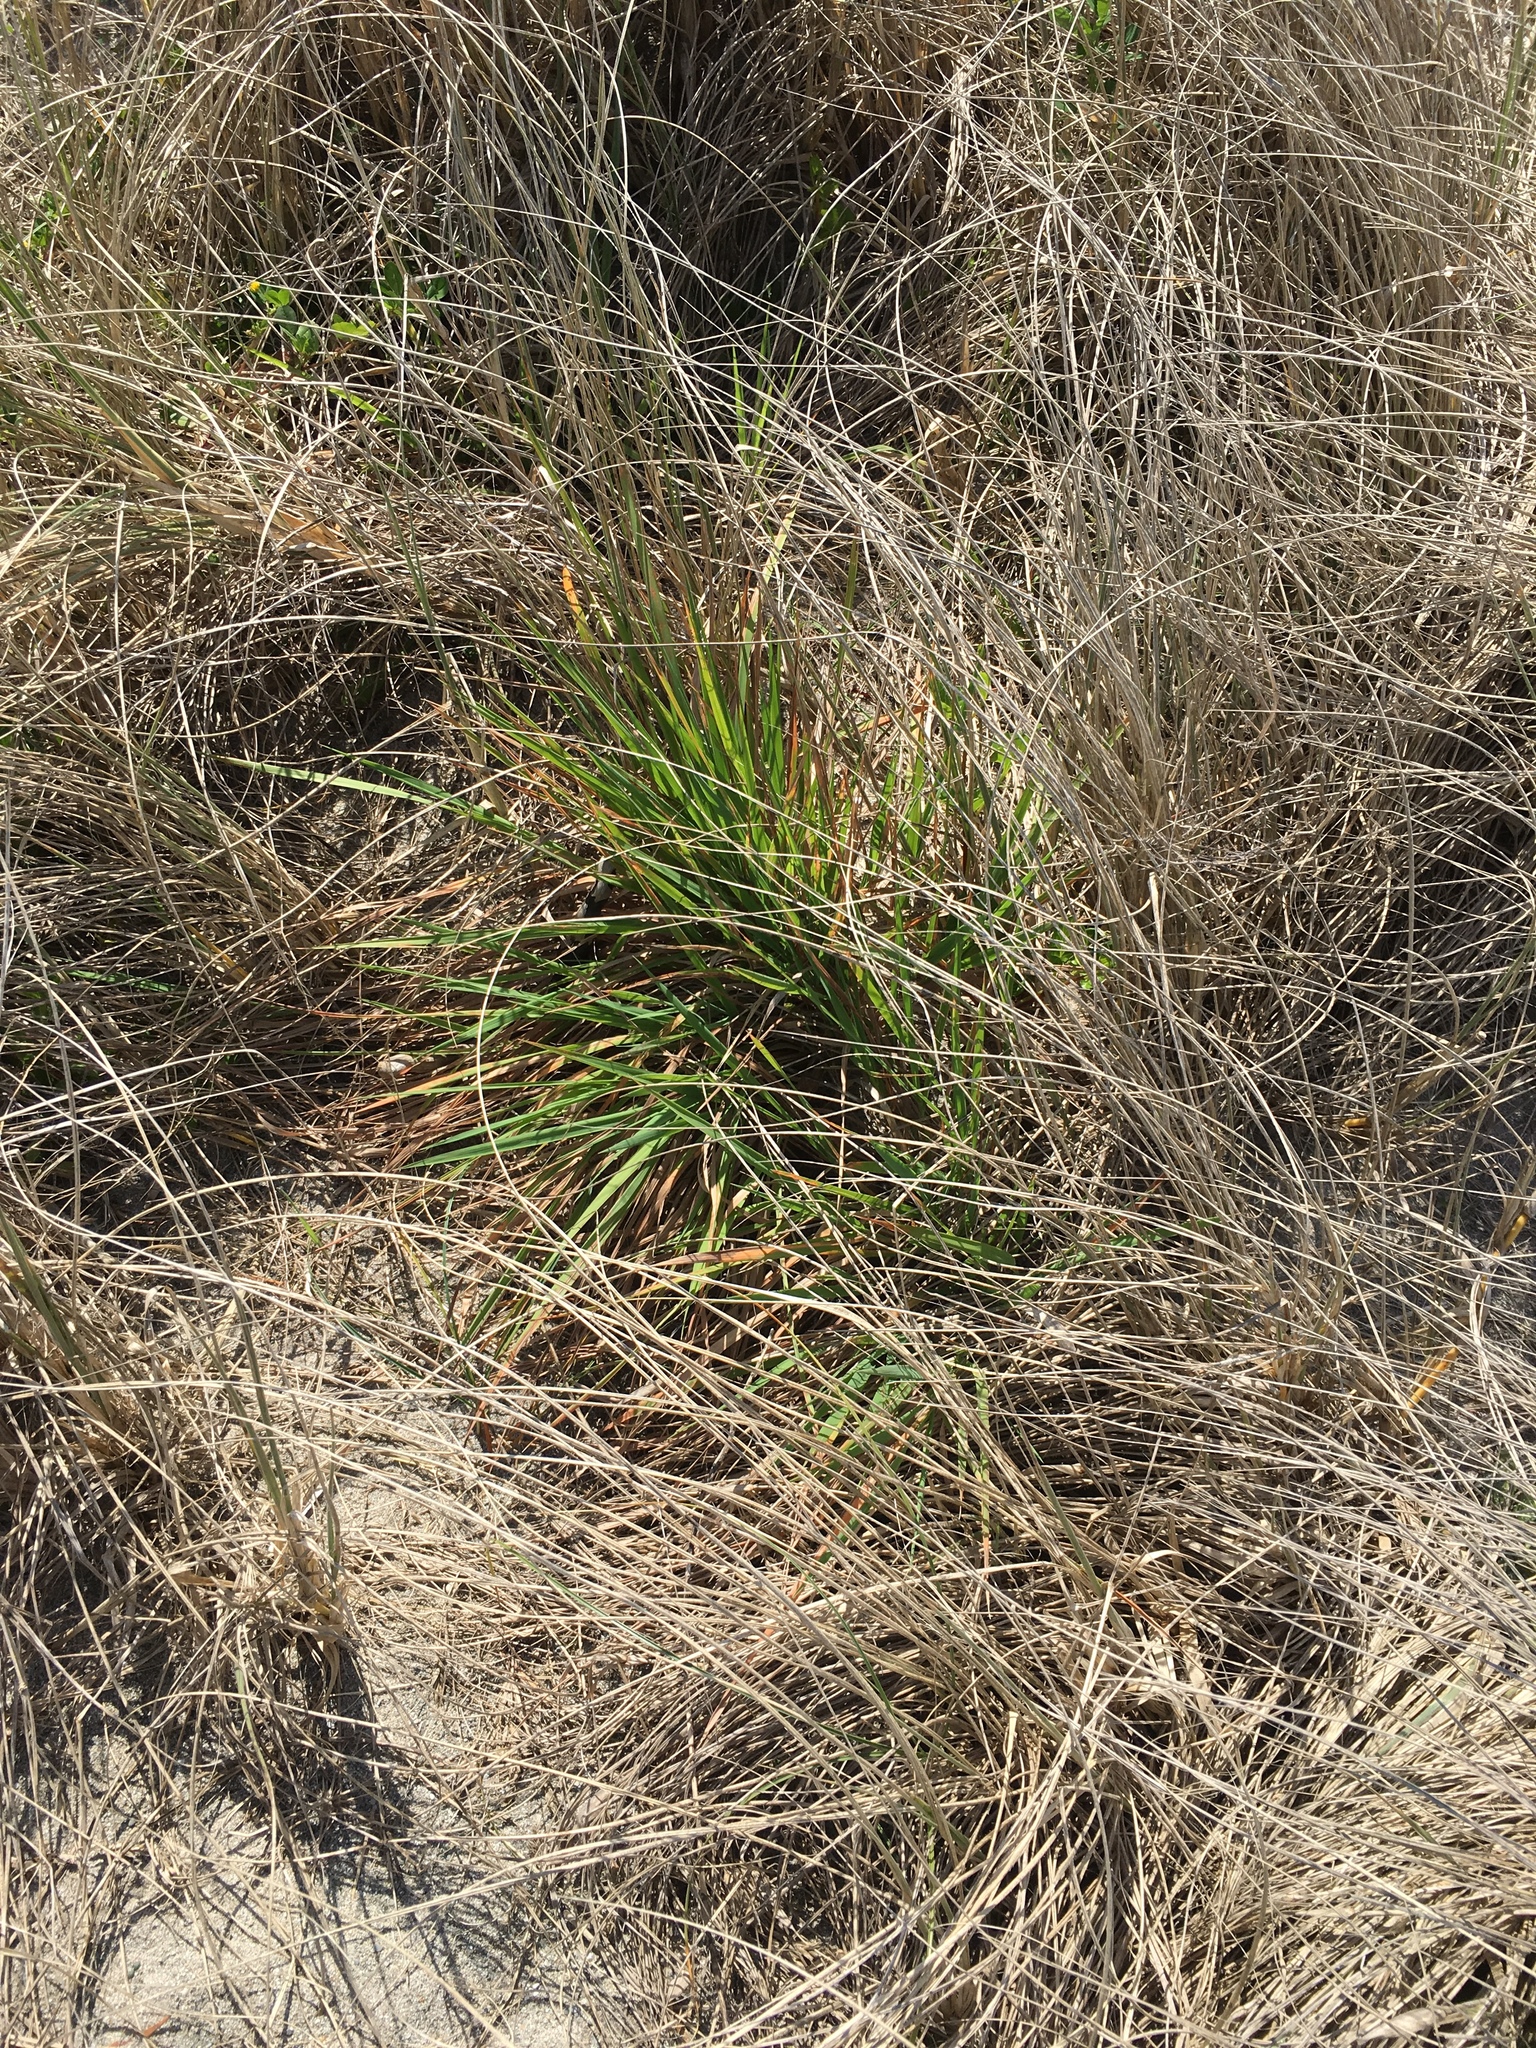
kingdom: Plantae
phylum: Tracheophyta
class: Liliopsida
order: Poales
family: Poaceae
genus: Lachnagrostis
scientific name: Lachnagrostis billardierei
